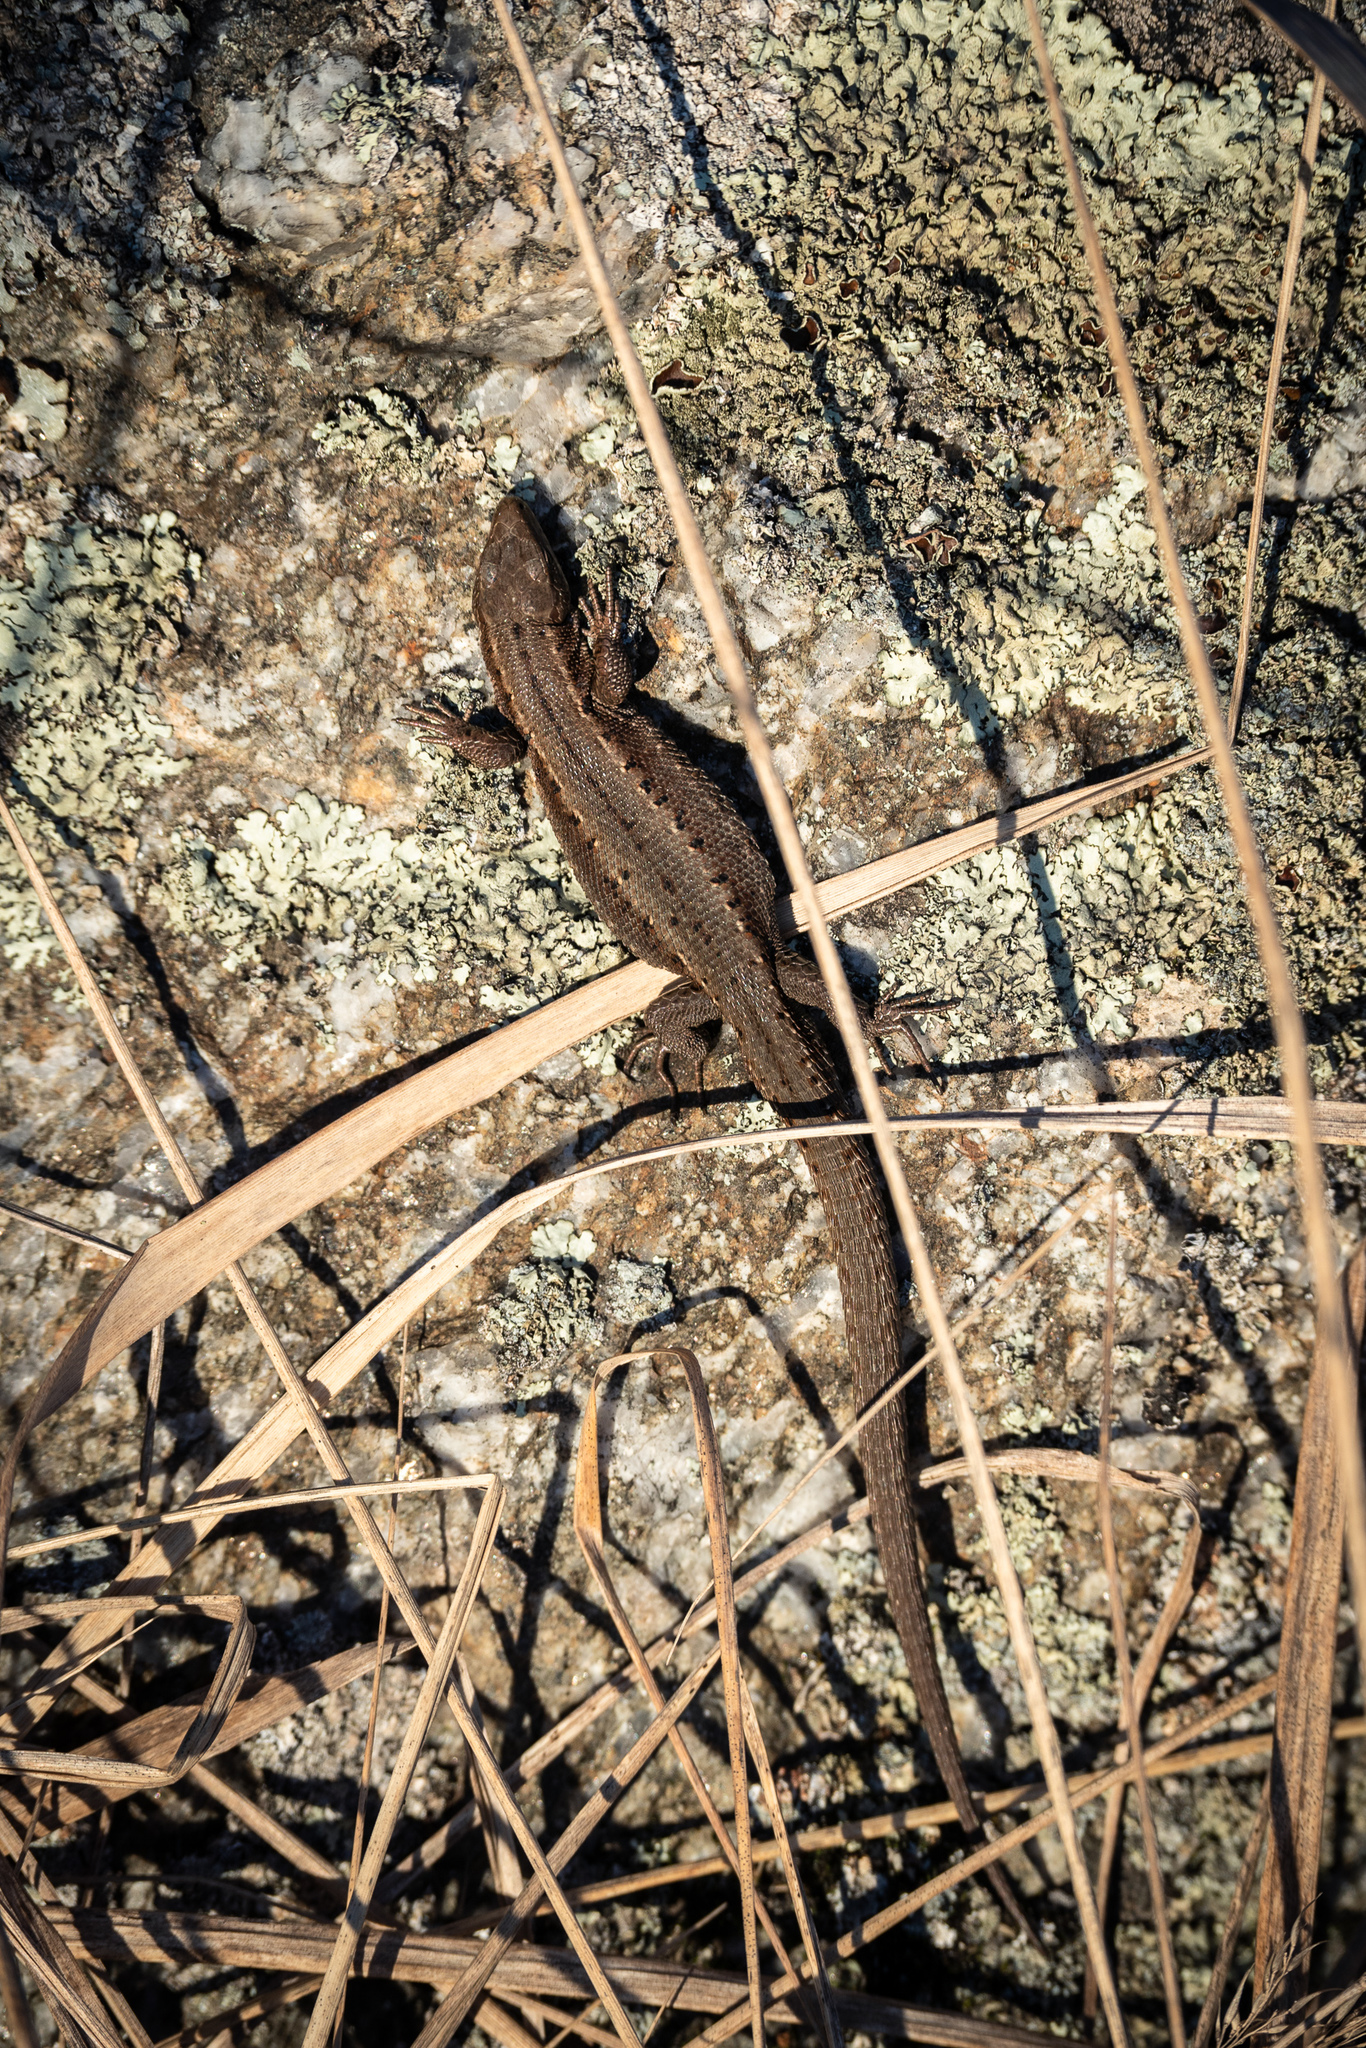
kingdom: Animalia
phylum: Chordata
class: Squamata
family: Lacertidae
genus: Zootoca
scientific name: Zootoca vivipara
